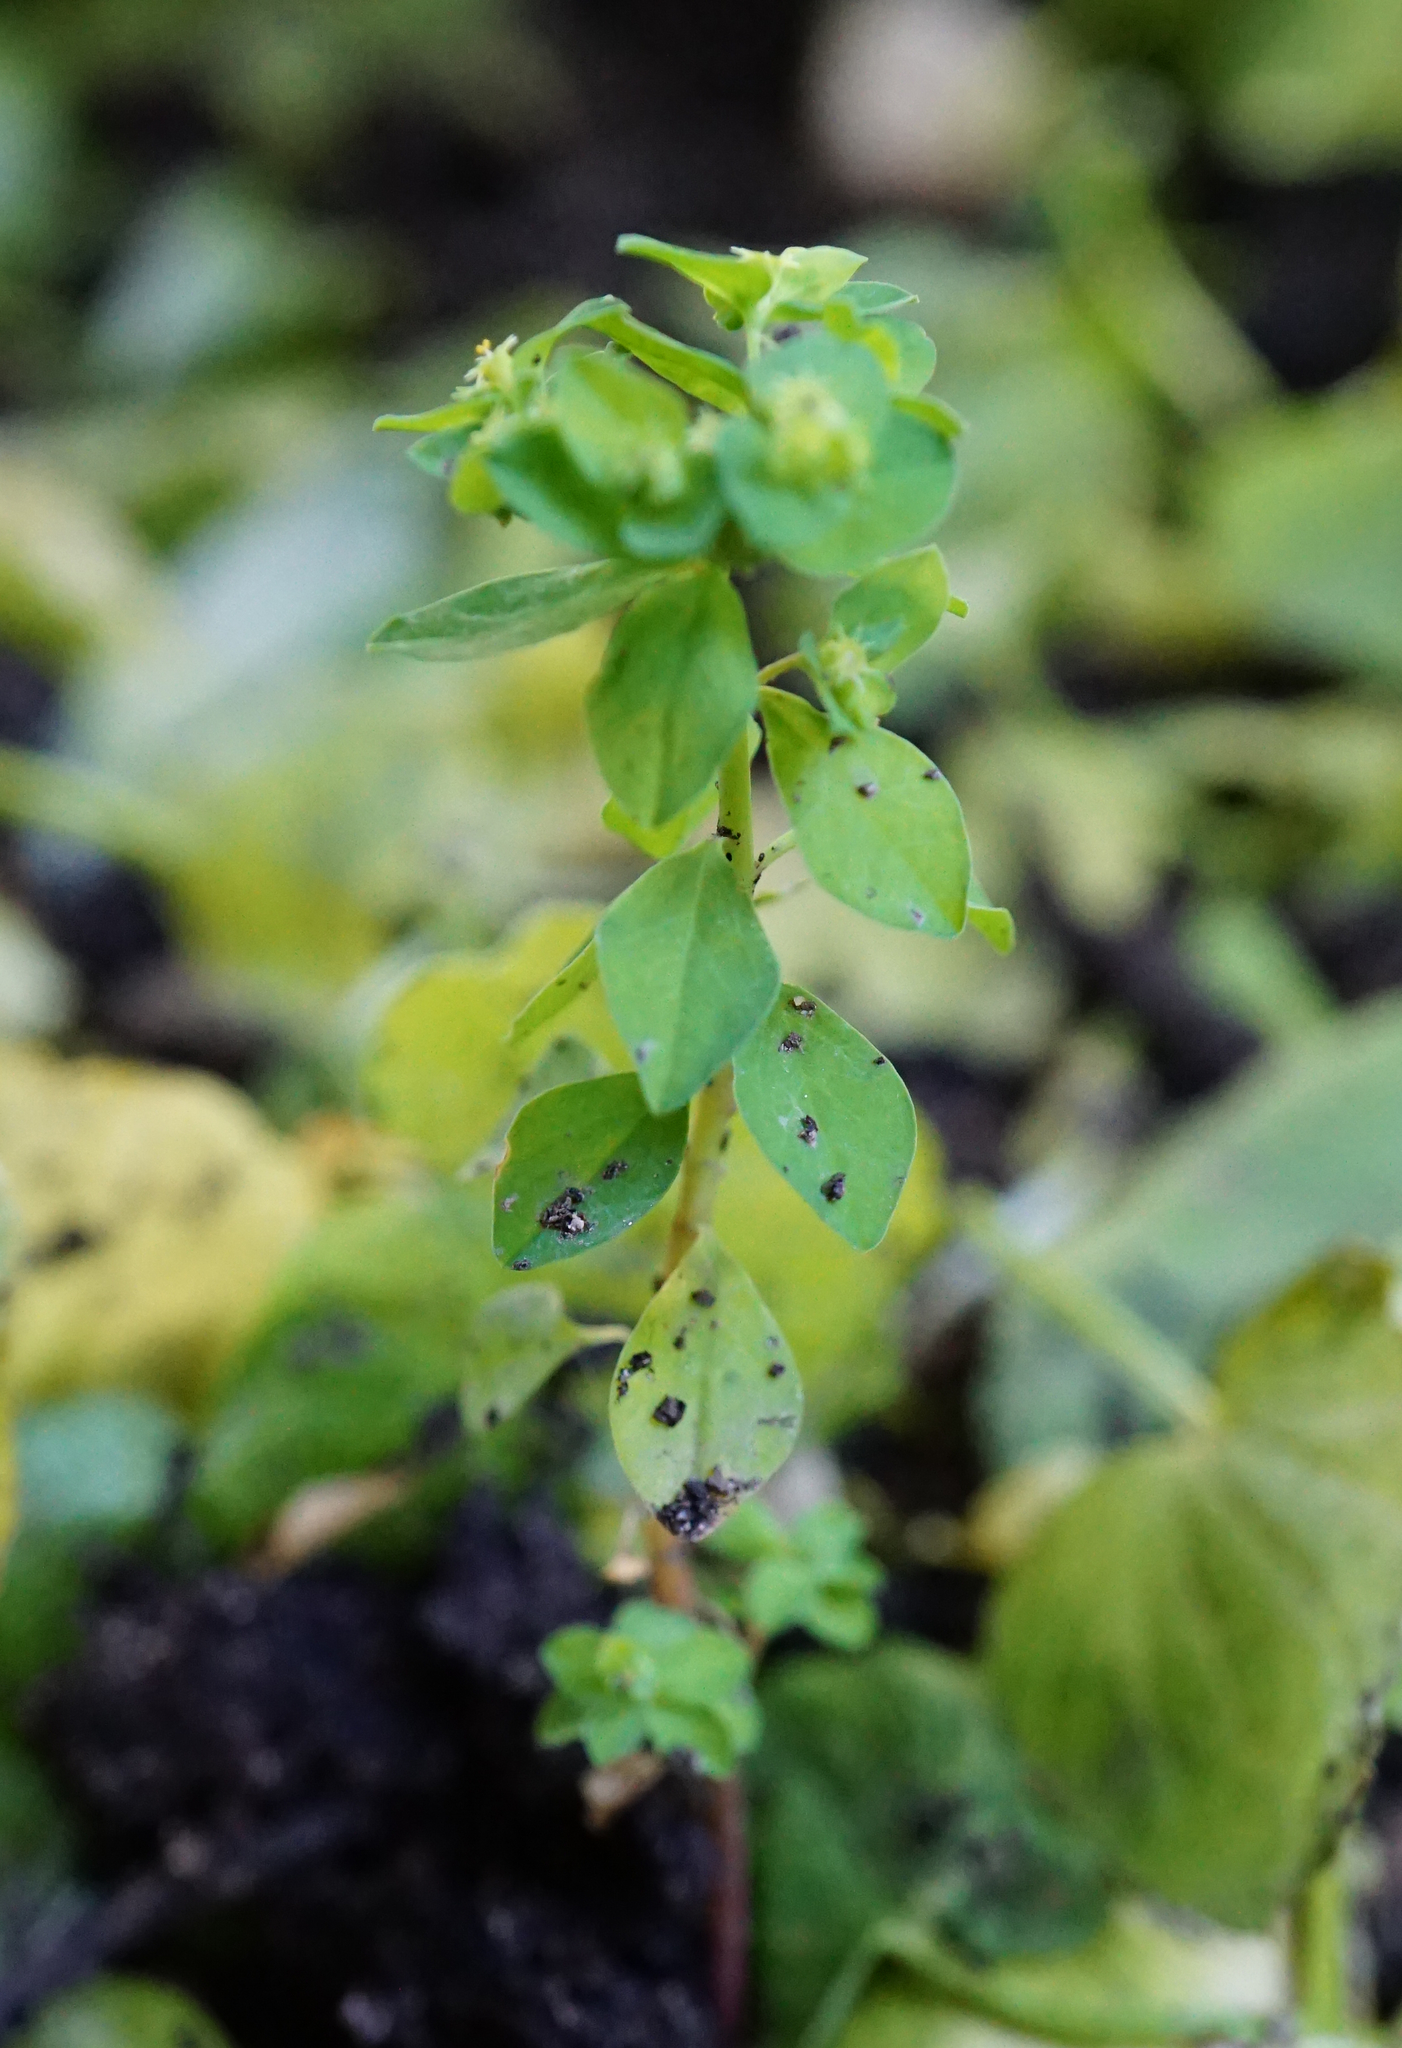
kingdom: Plantae
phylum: Tracheophyta
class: Magnoliopsida
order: Malpighiales
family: Euphorbiaceae
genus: Euphorbia
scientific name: Euphorbia peplus
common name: Petty spurge
